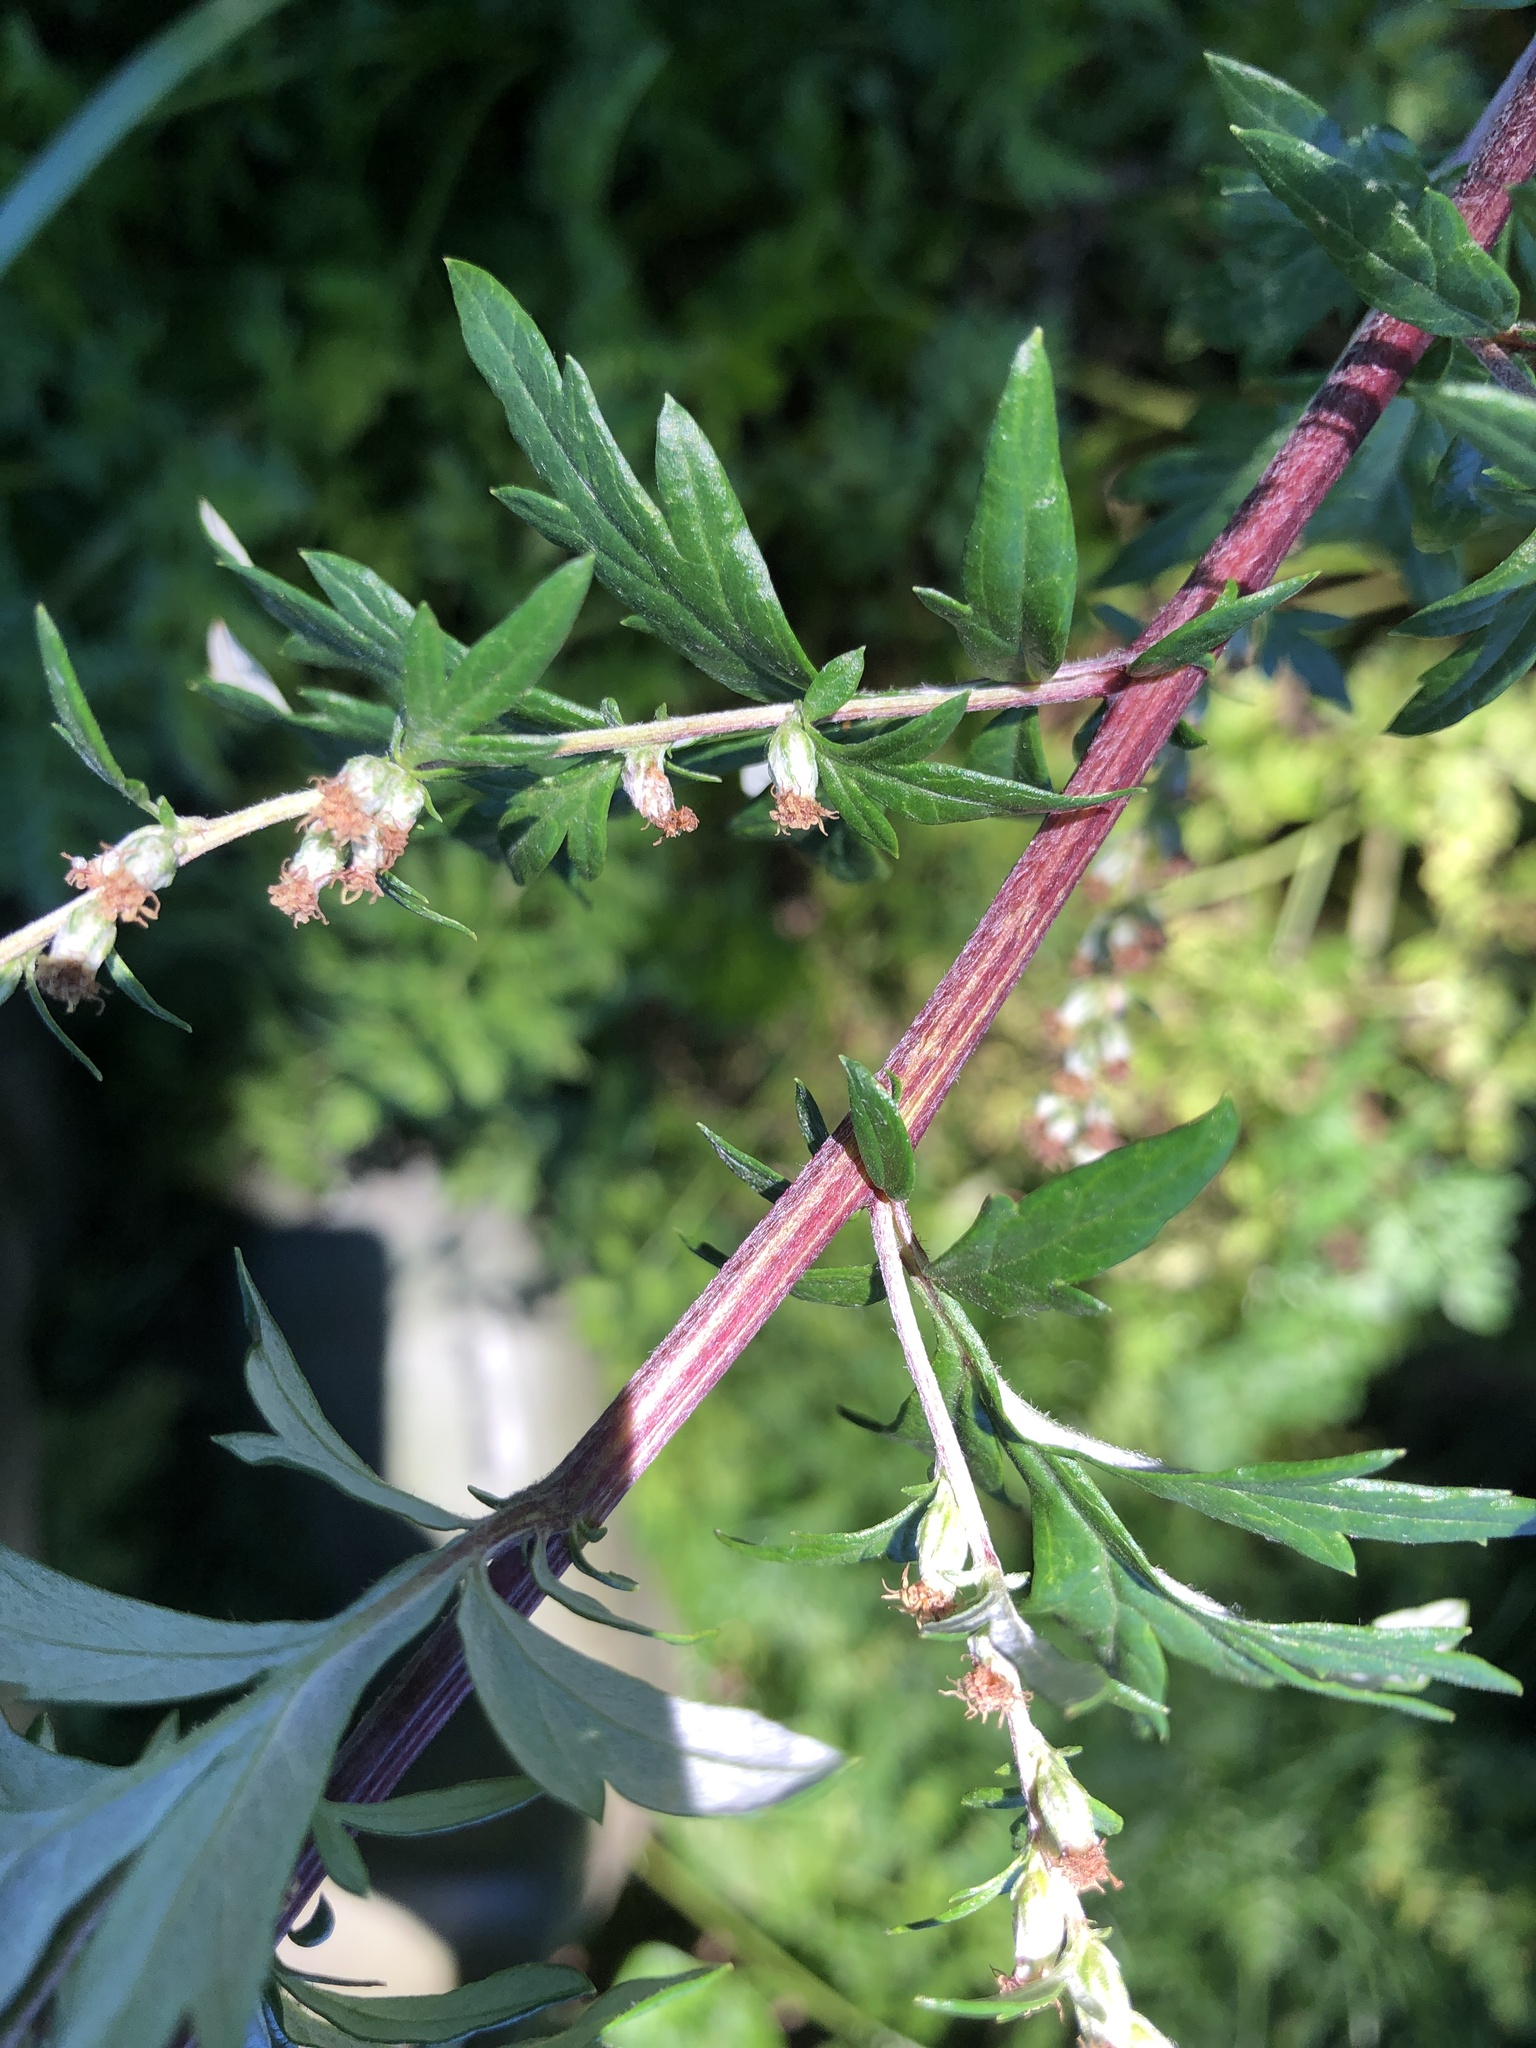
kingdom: Plantae
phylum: Tracheophyta
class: Magnoliopsida
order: Asterales
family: Asteraceae
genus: Artemisia
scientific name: Artemisia vulgaris
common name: Mugwort
